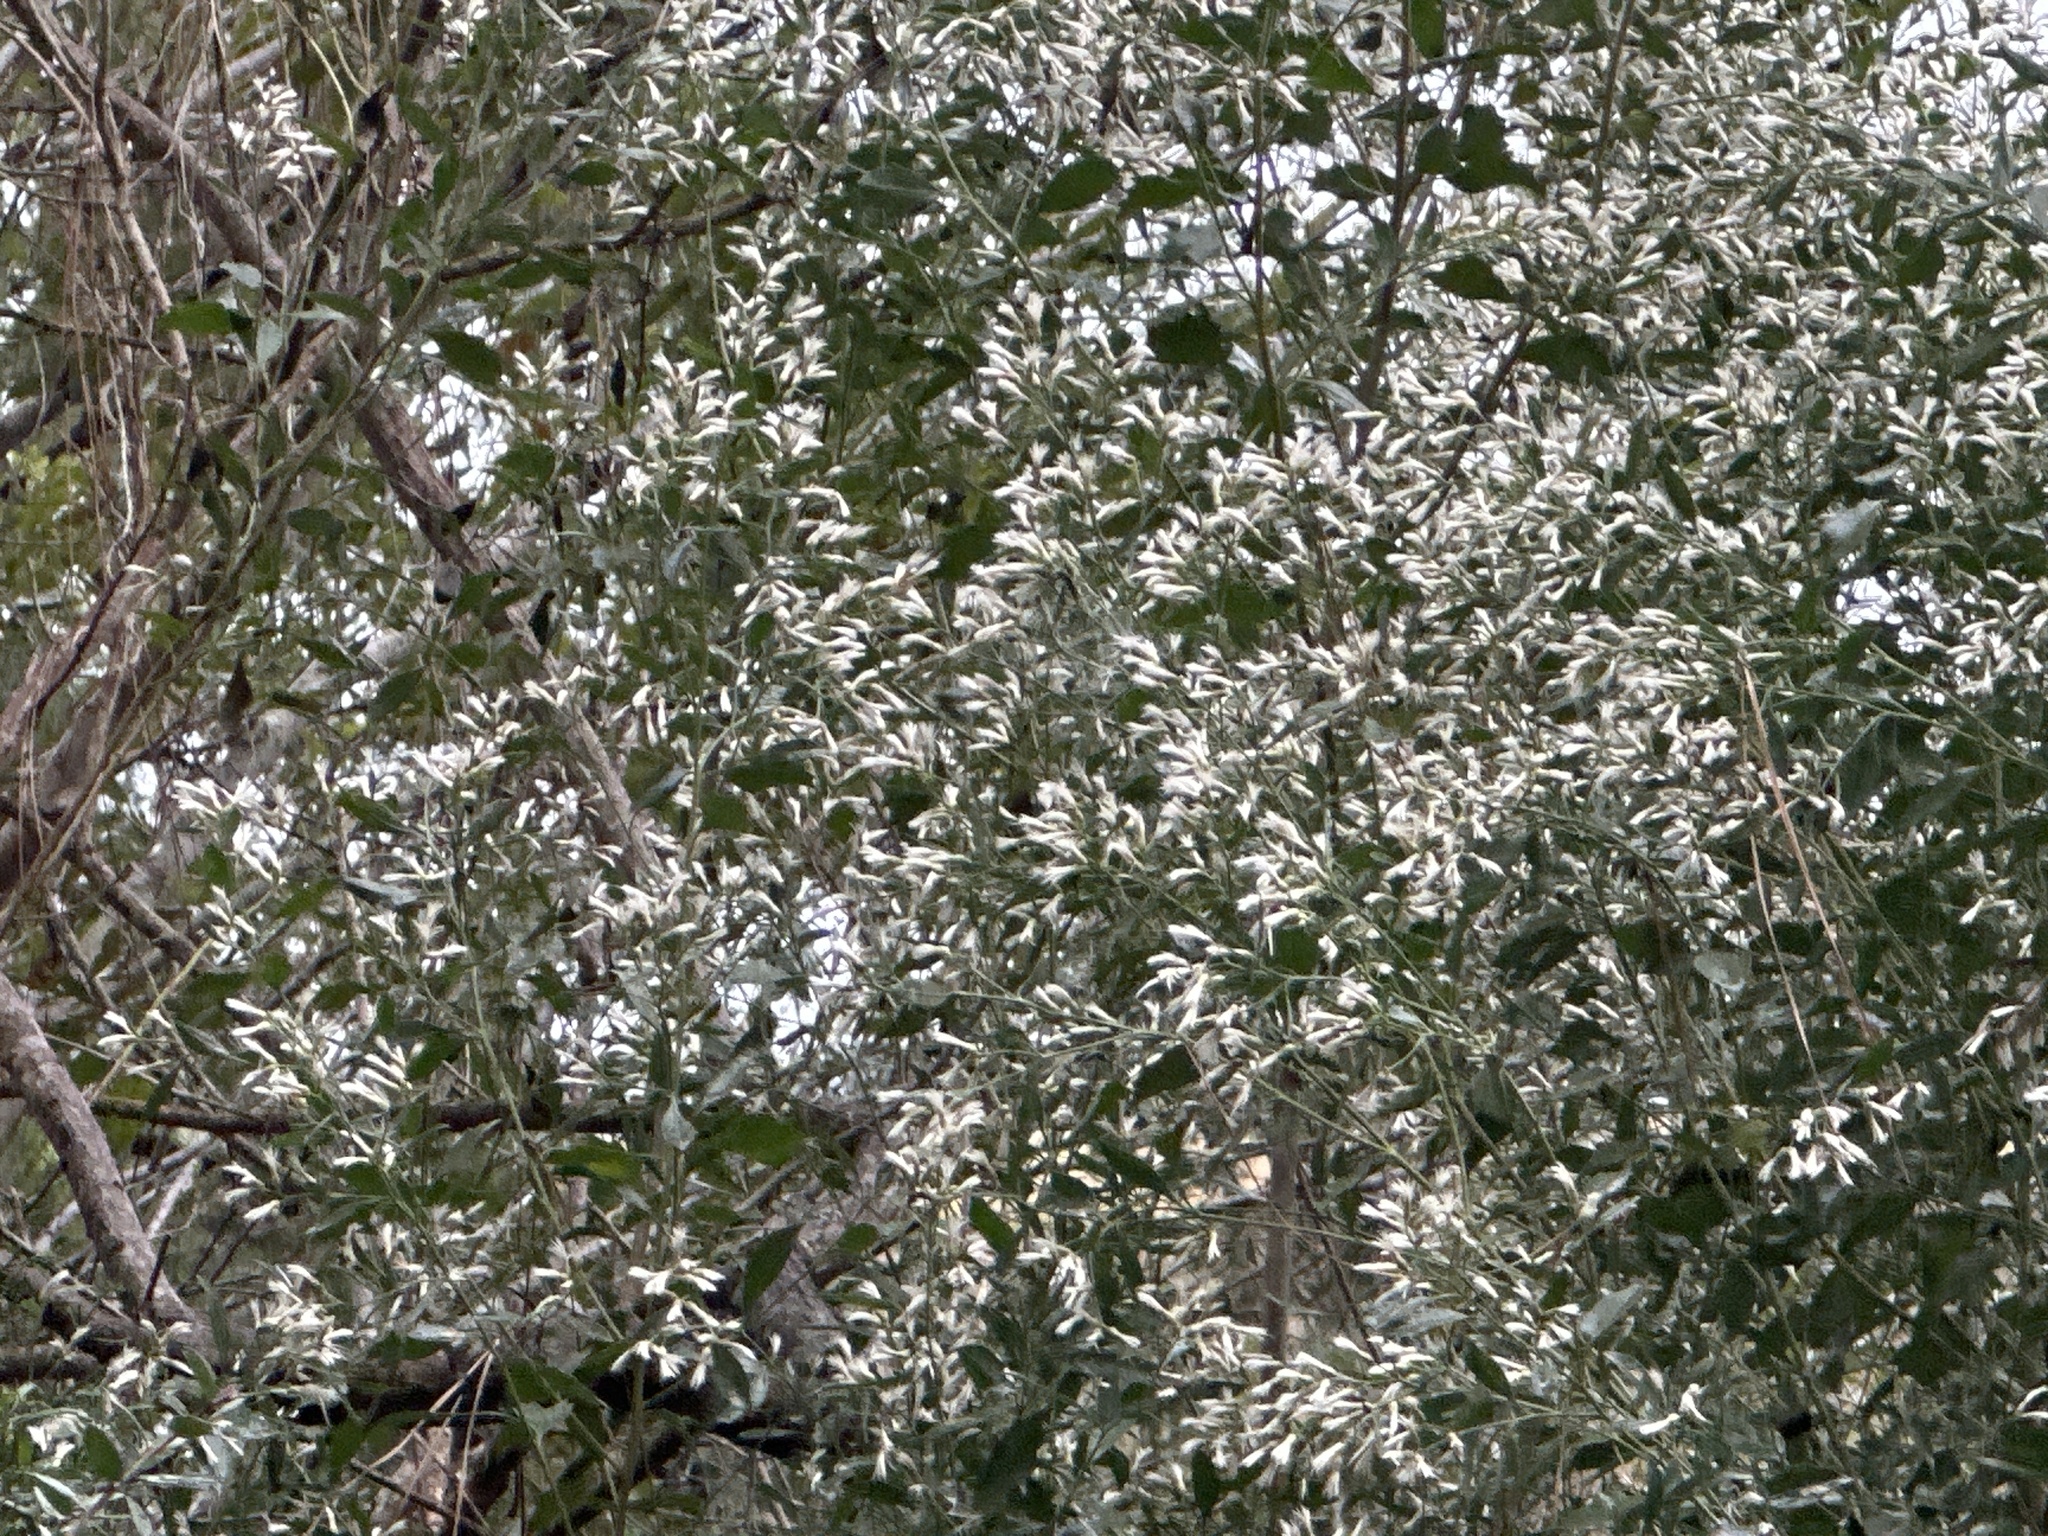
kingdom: Plantae
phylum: Tracheophyta
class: Magnoliopsida
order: Asterales
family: Asteraceae
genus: Baccharis
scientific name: Baccharis halimifolia
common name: Eastern baccharis
